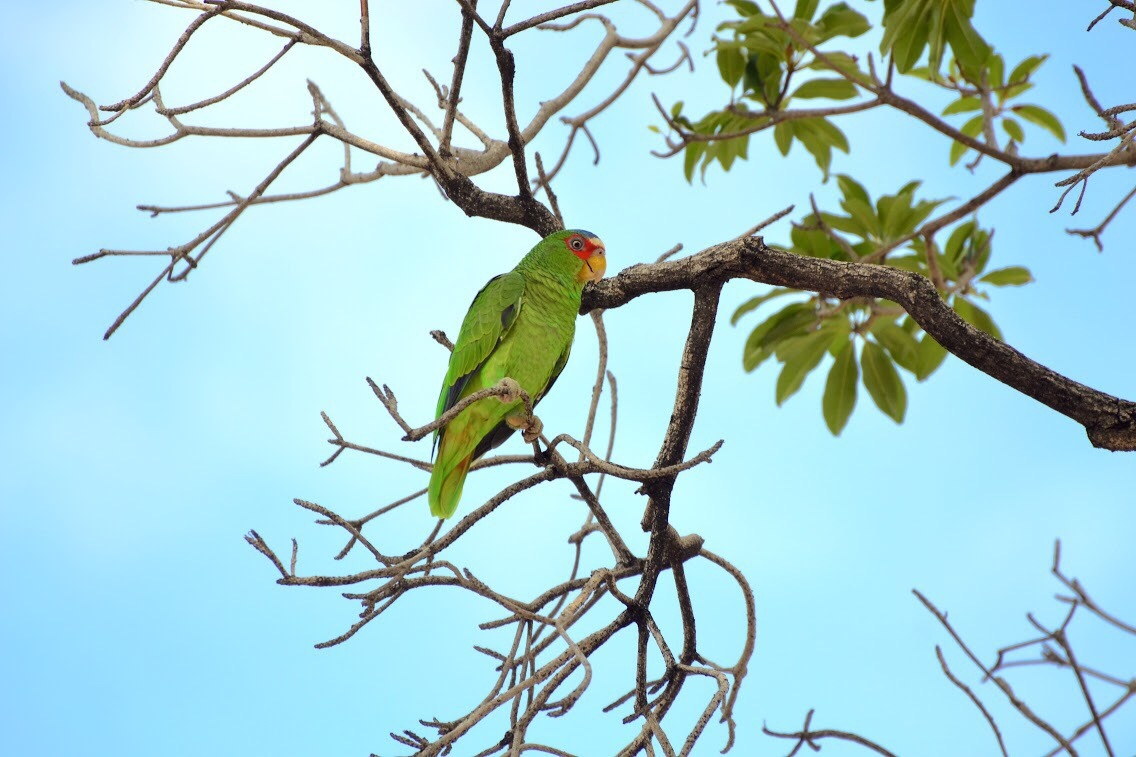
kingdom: Animalia
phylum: Chordata
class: Aves
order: Psittaciformes
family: Psittacidae
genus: Amazona
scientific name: Amazona albifrons
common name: White-fronted amazon
